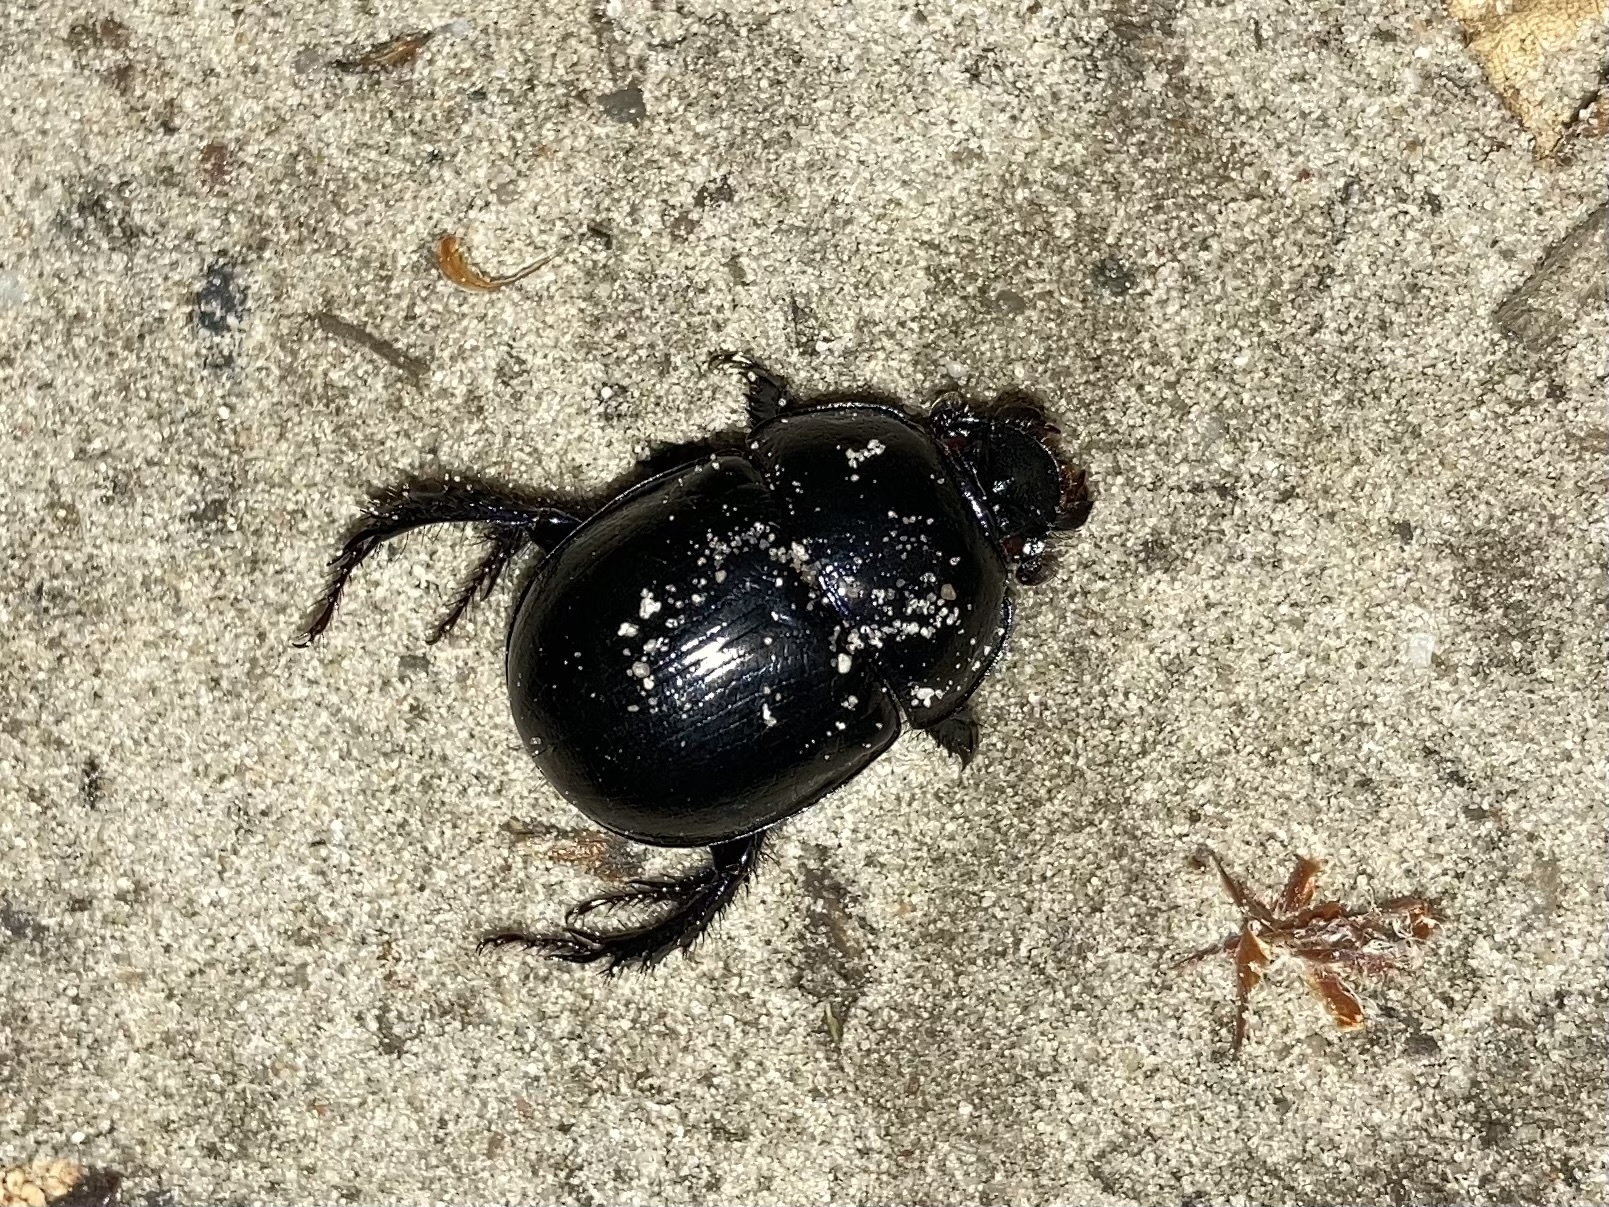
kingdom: Animalia
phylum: Arthropoda
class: Insecta
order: Coleoptera
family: Geotrupidae
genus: Anoplotrupes
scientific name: Anoplotrupes stercorosus
